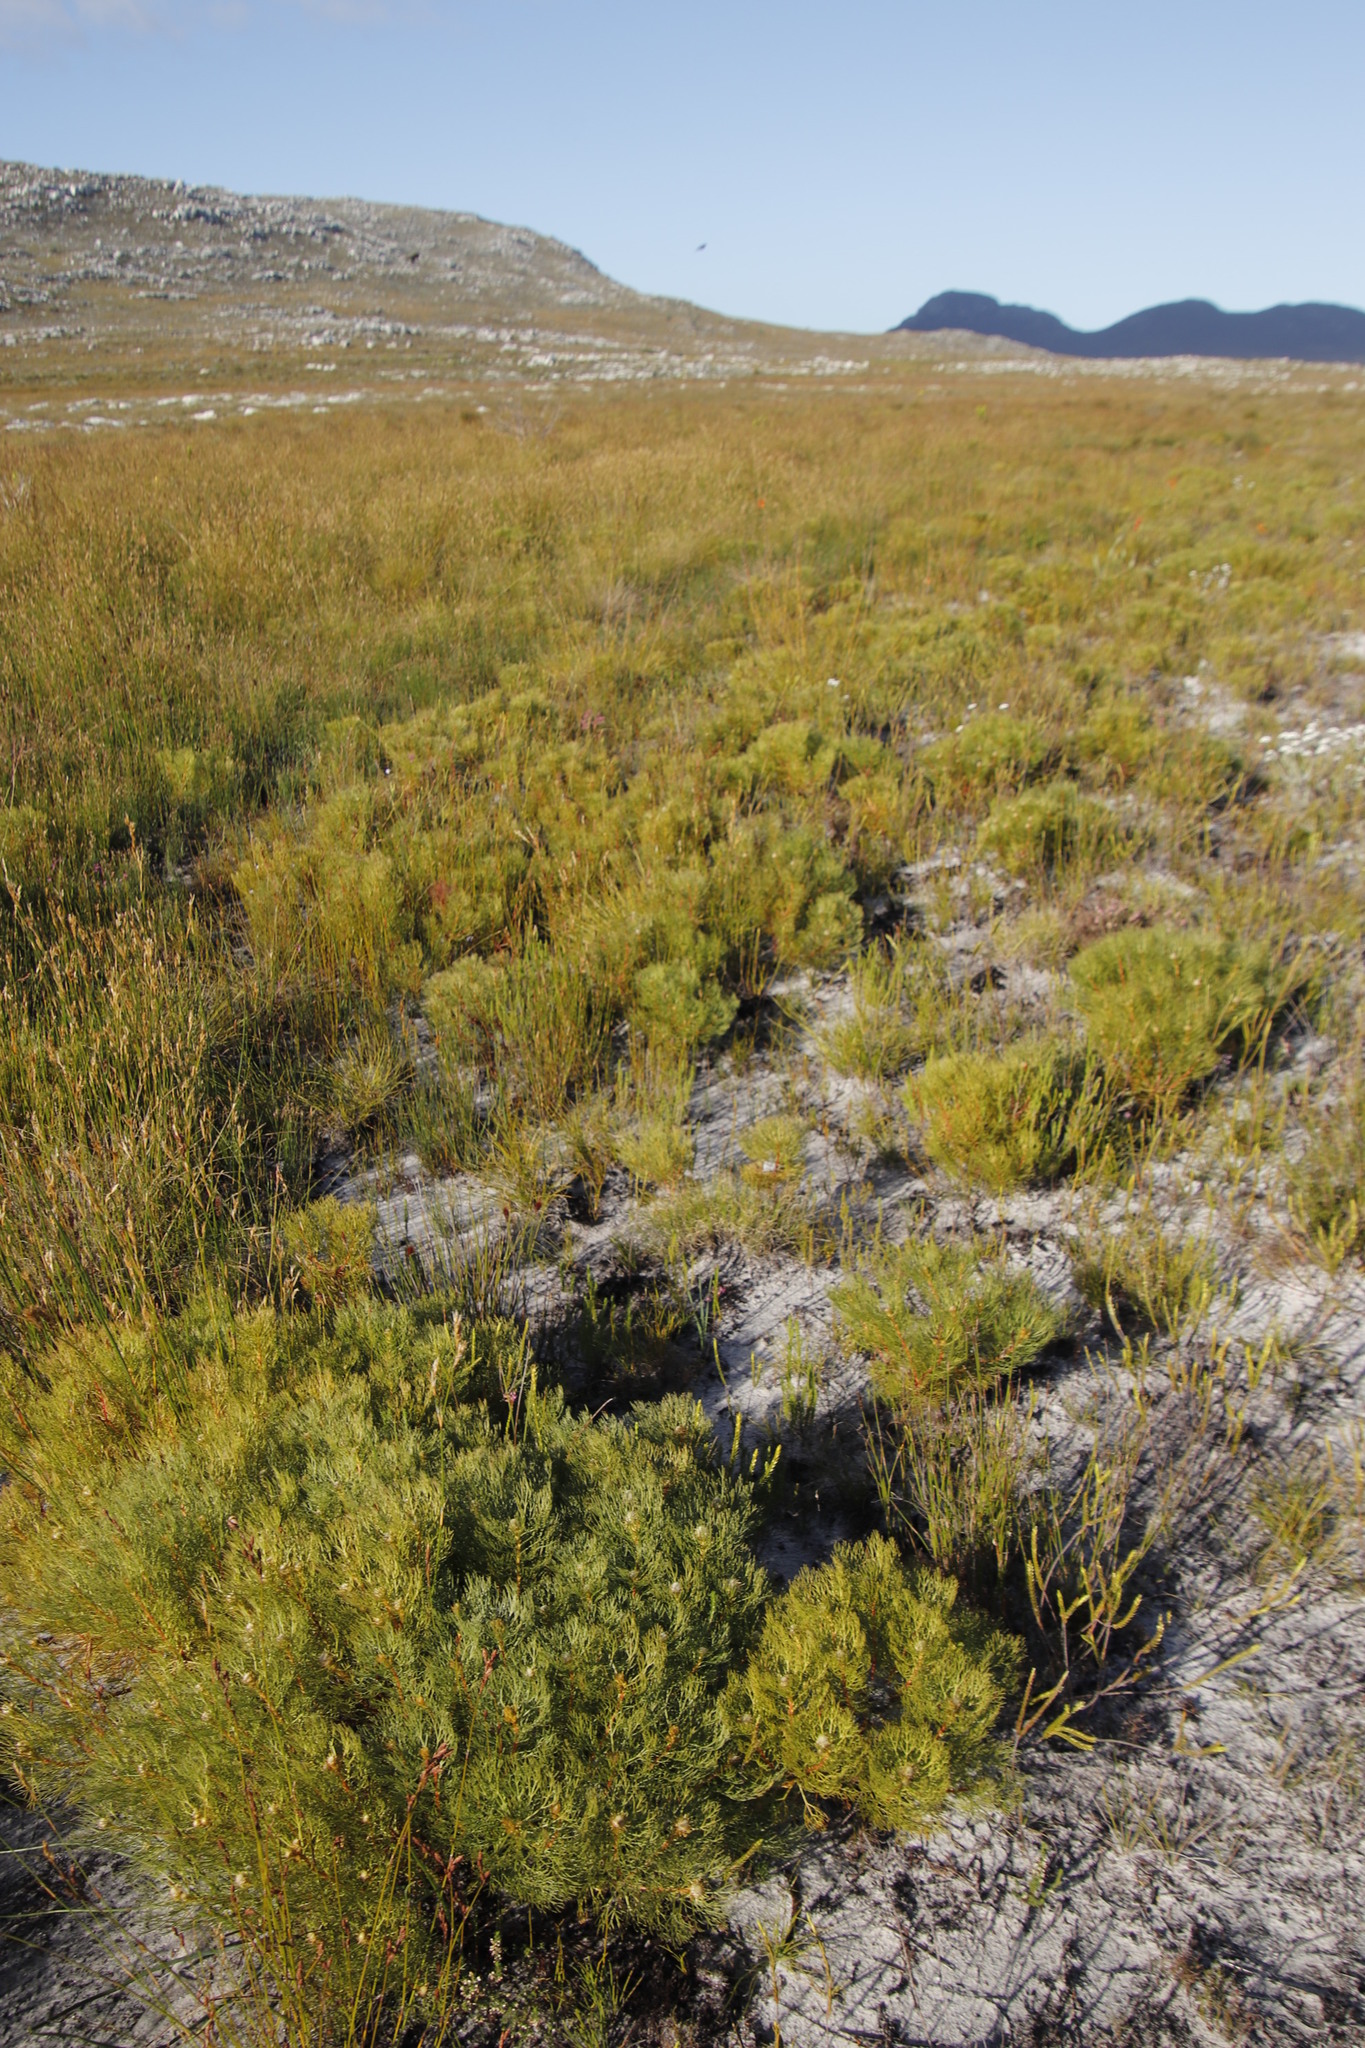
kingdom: Plantae
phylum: Tracheophyta
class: Magnoliopsida
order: Proteales
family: Proteaceae
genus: Serruria
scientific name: Serruria glomerata
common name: Cluster spiderhead
